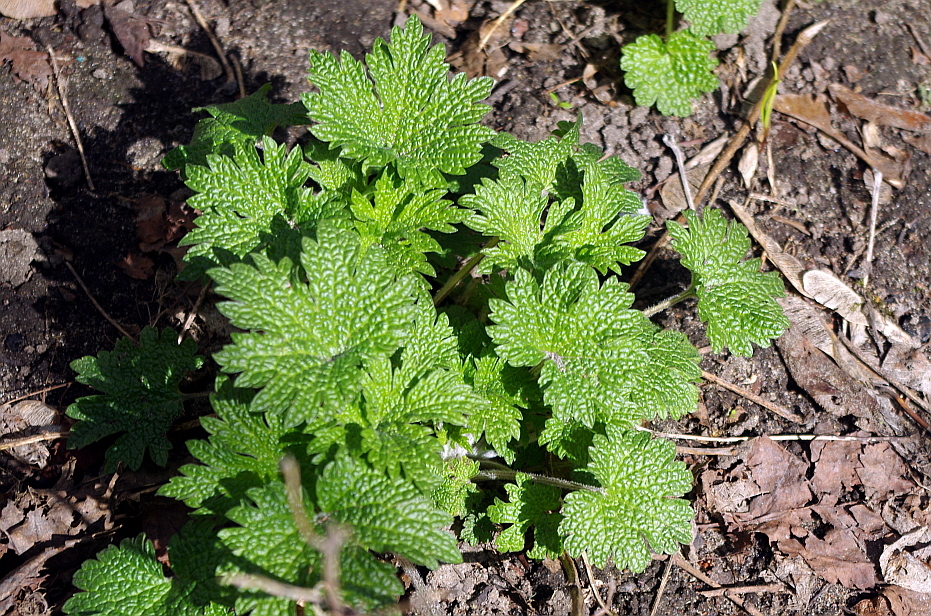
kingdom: Plantae
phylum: Tracheophyta
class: Magnoliopsida
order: Lamiales
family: Lamiaceae
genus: Leonurus
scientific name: Leonurus quinquelobatus
